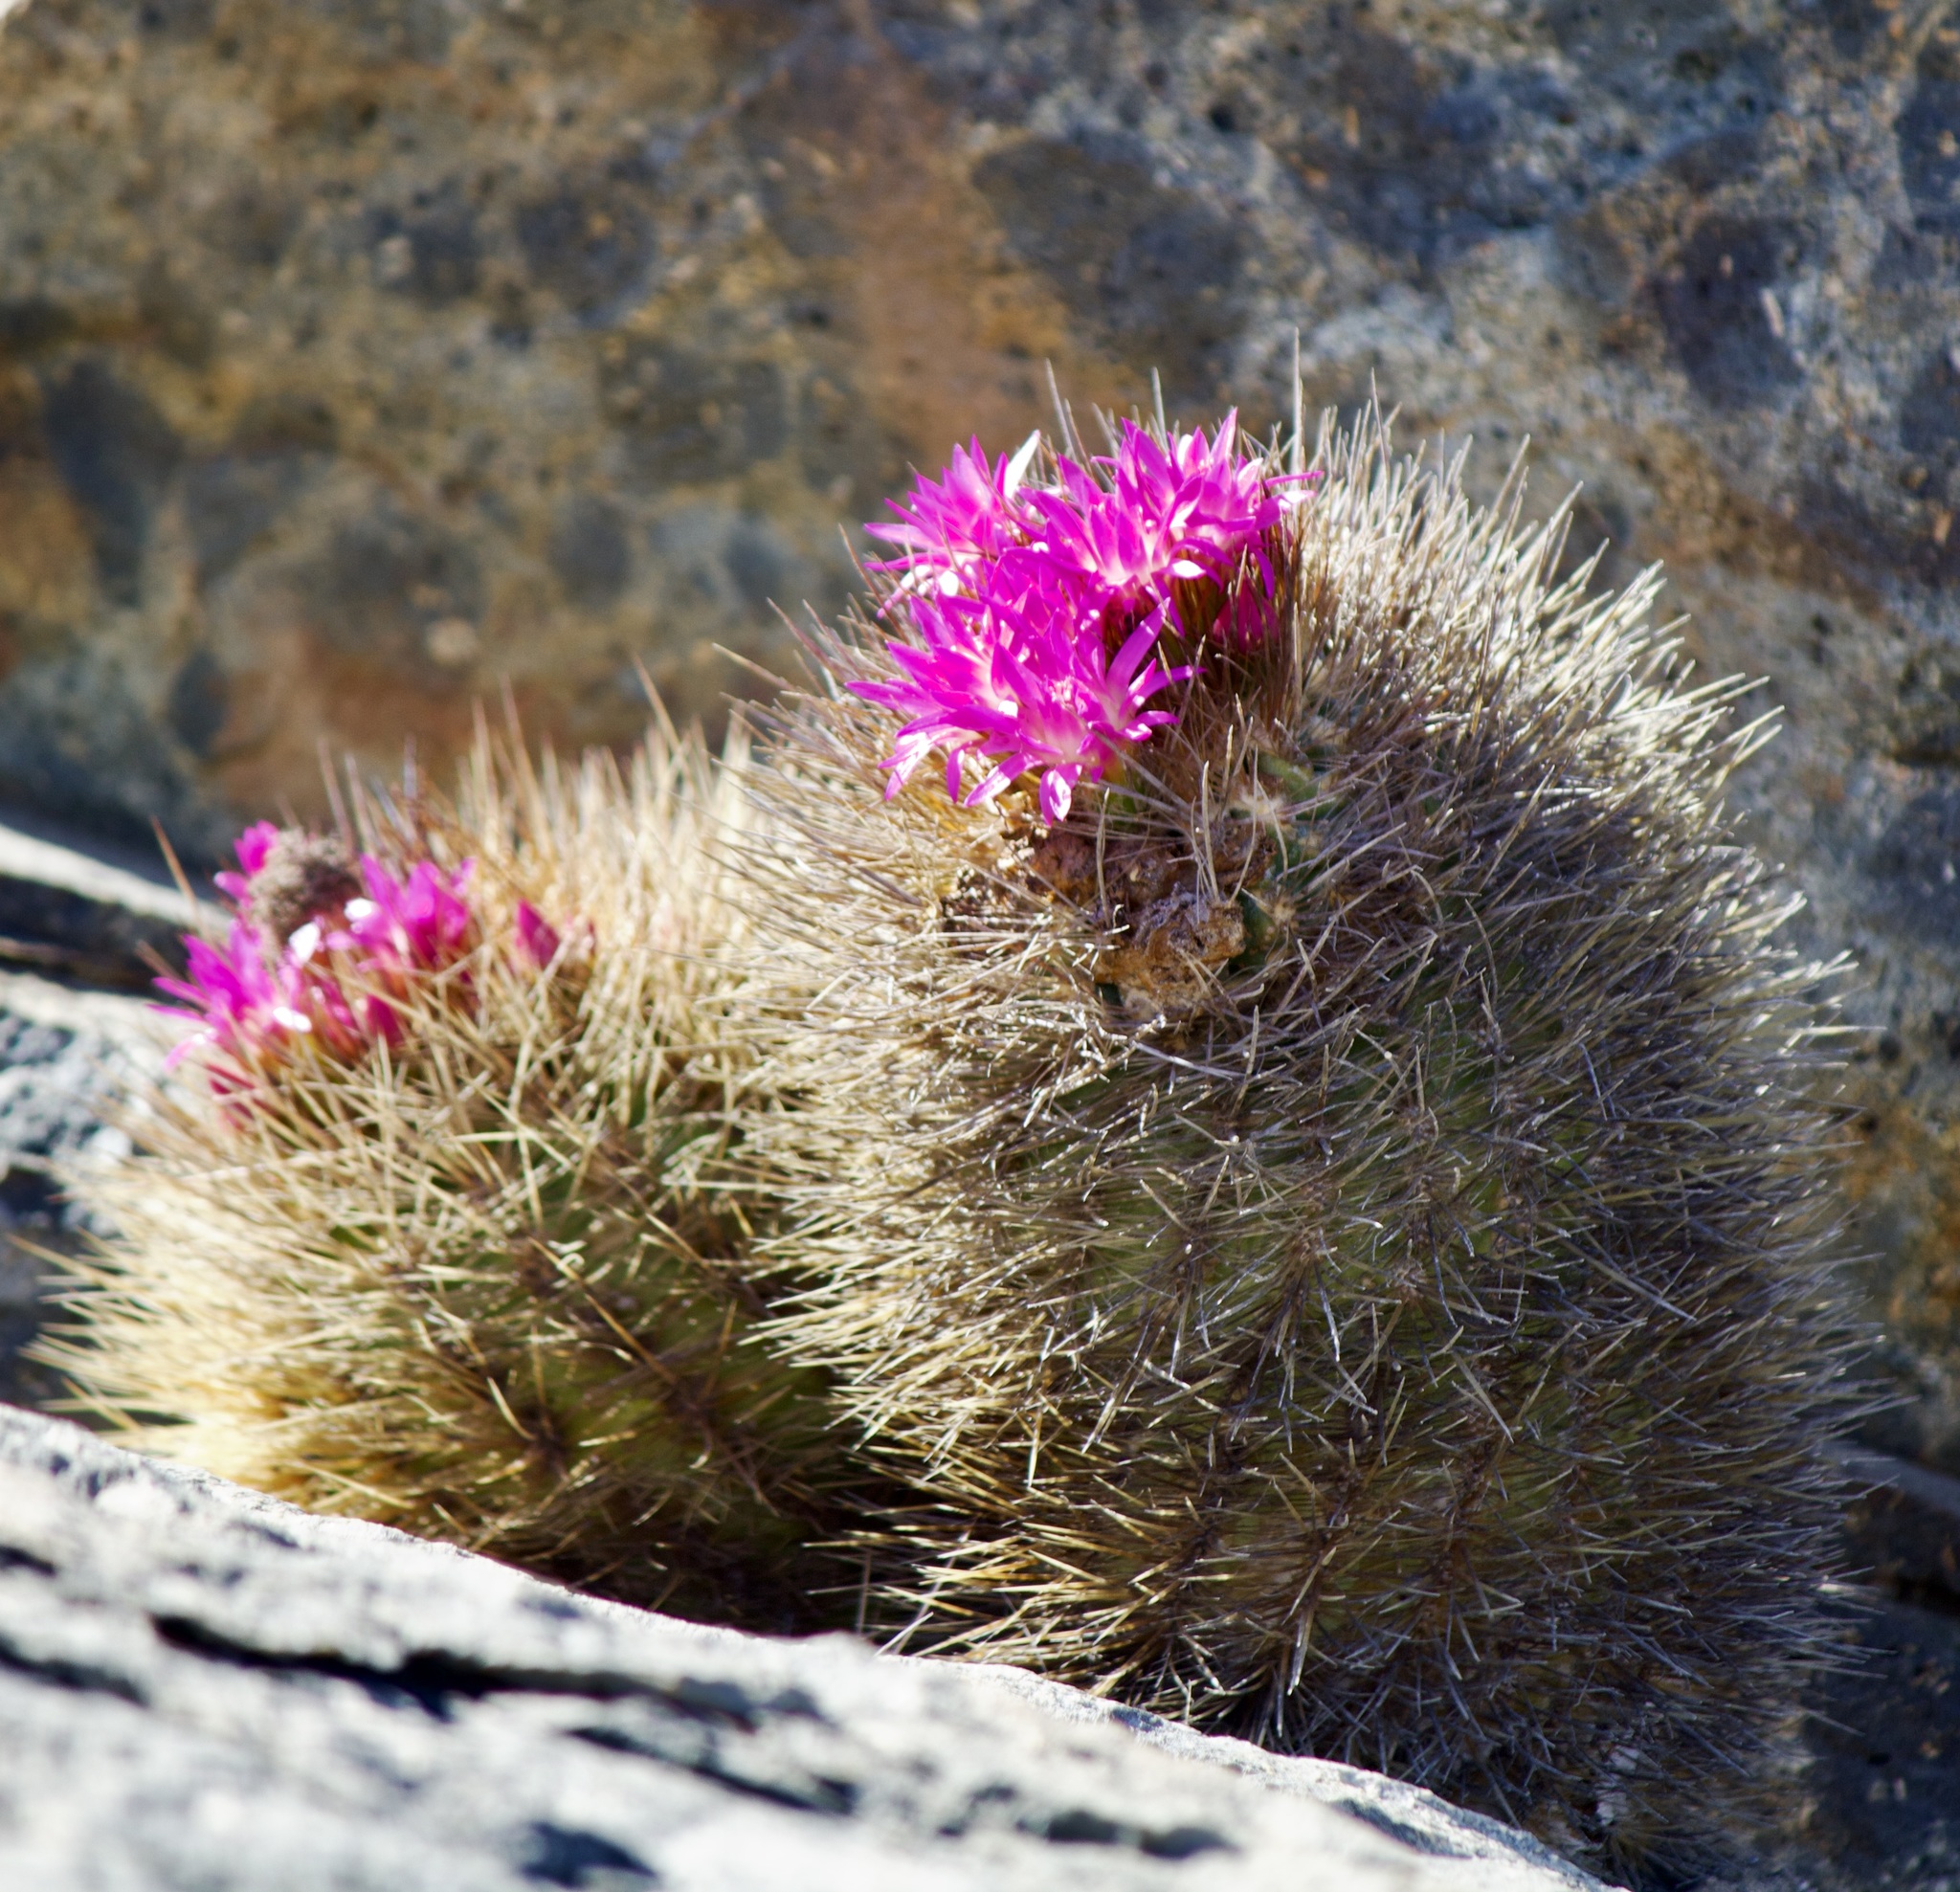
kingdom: Plantae
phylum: Tracheophyta
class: Magnoliopsida
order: Caryophyllales
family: Cactaceae
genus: Eriosyce
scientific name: Eriosyce subgibbosa
